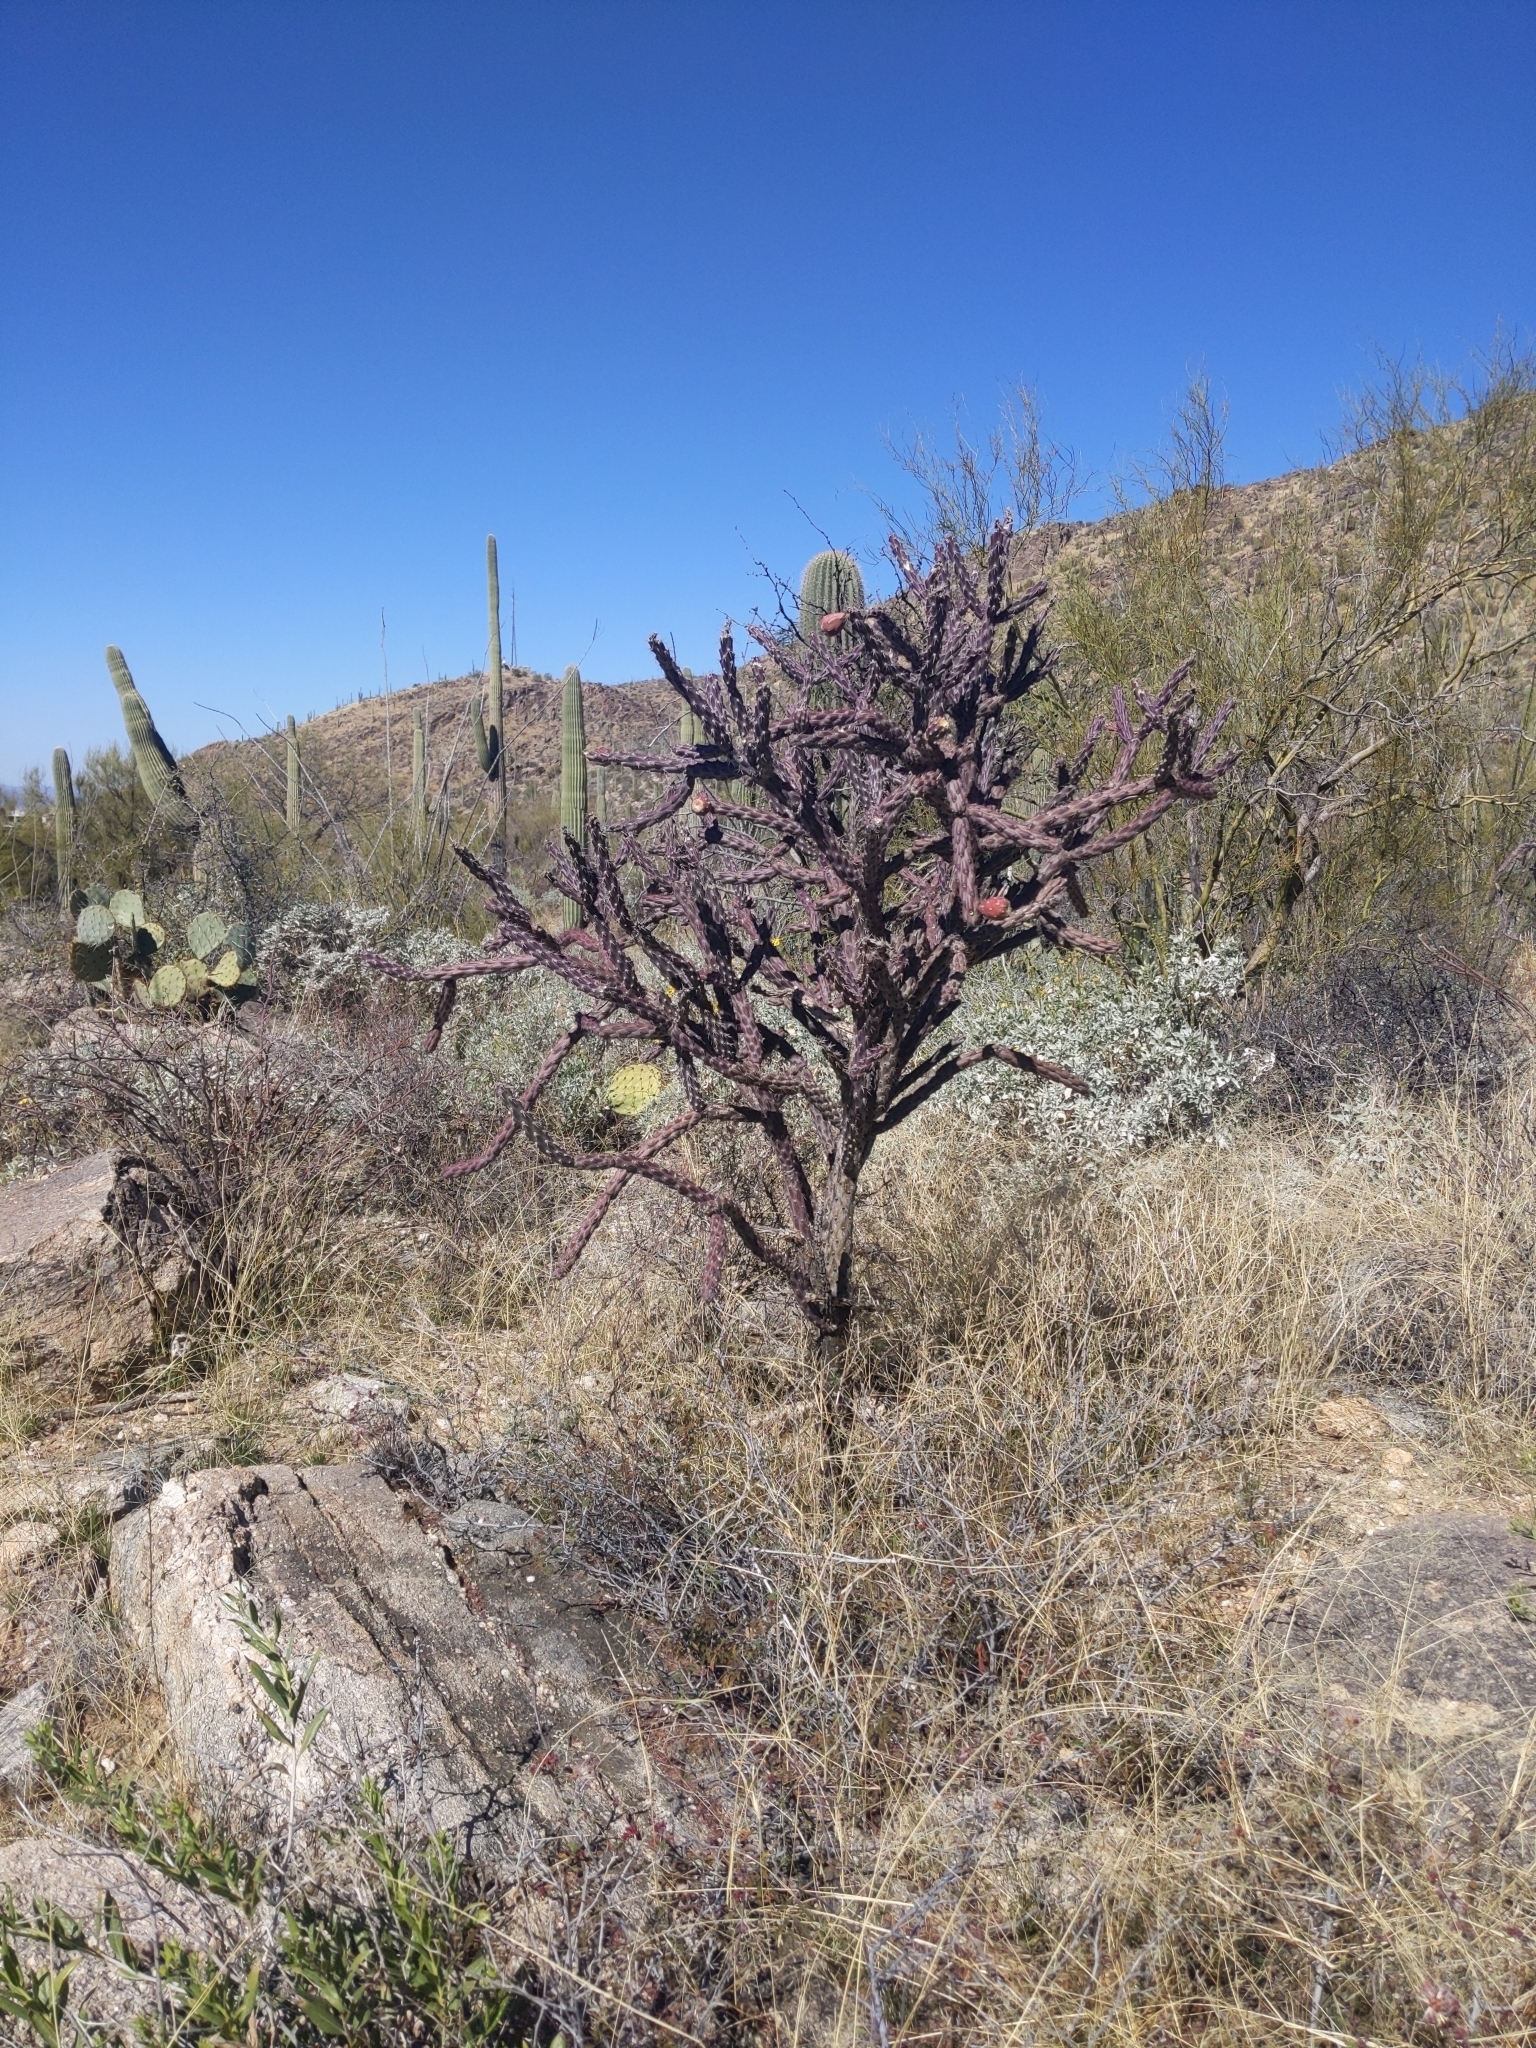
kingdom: Plantae
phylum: Tracheophyta
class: Magnoliopsida
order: Caryophyllales
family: Cactaceae
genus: Cylindropuntia
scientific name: Cylindropuntia thurberi
